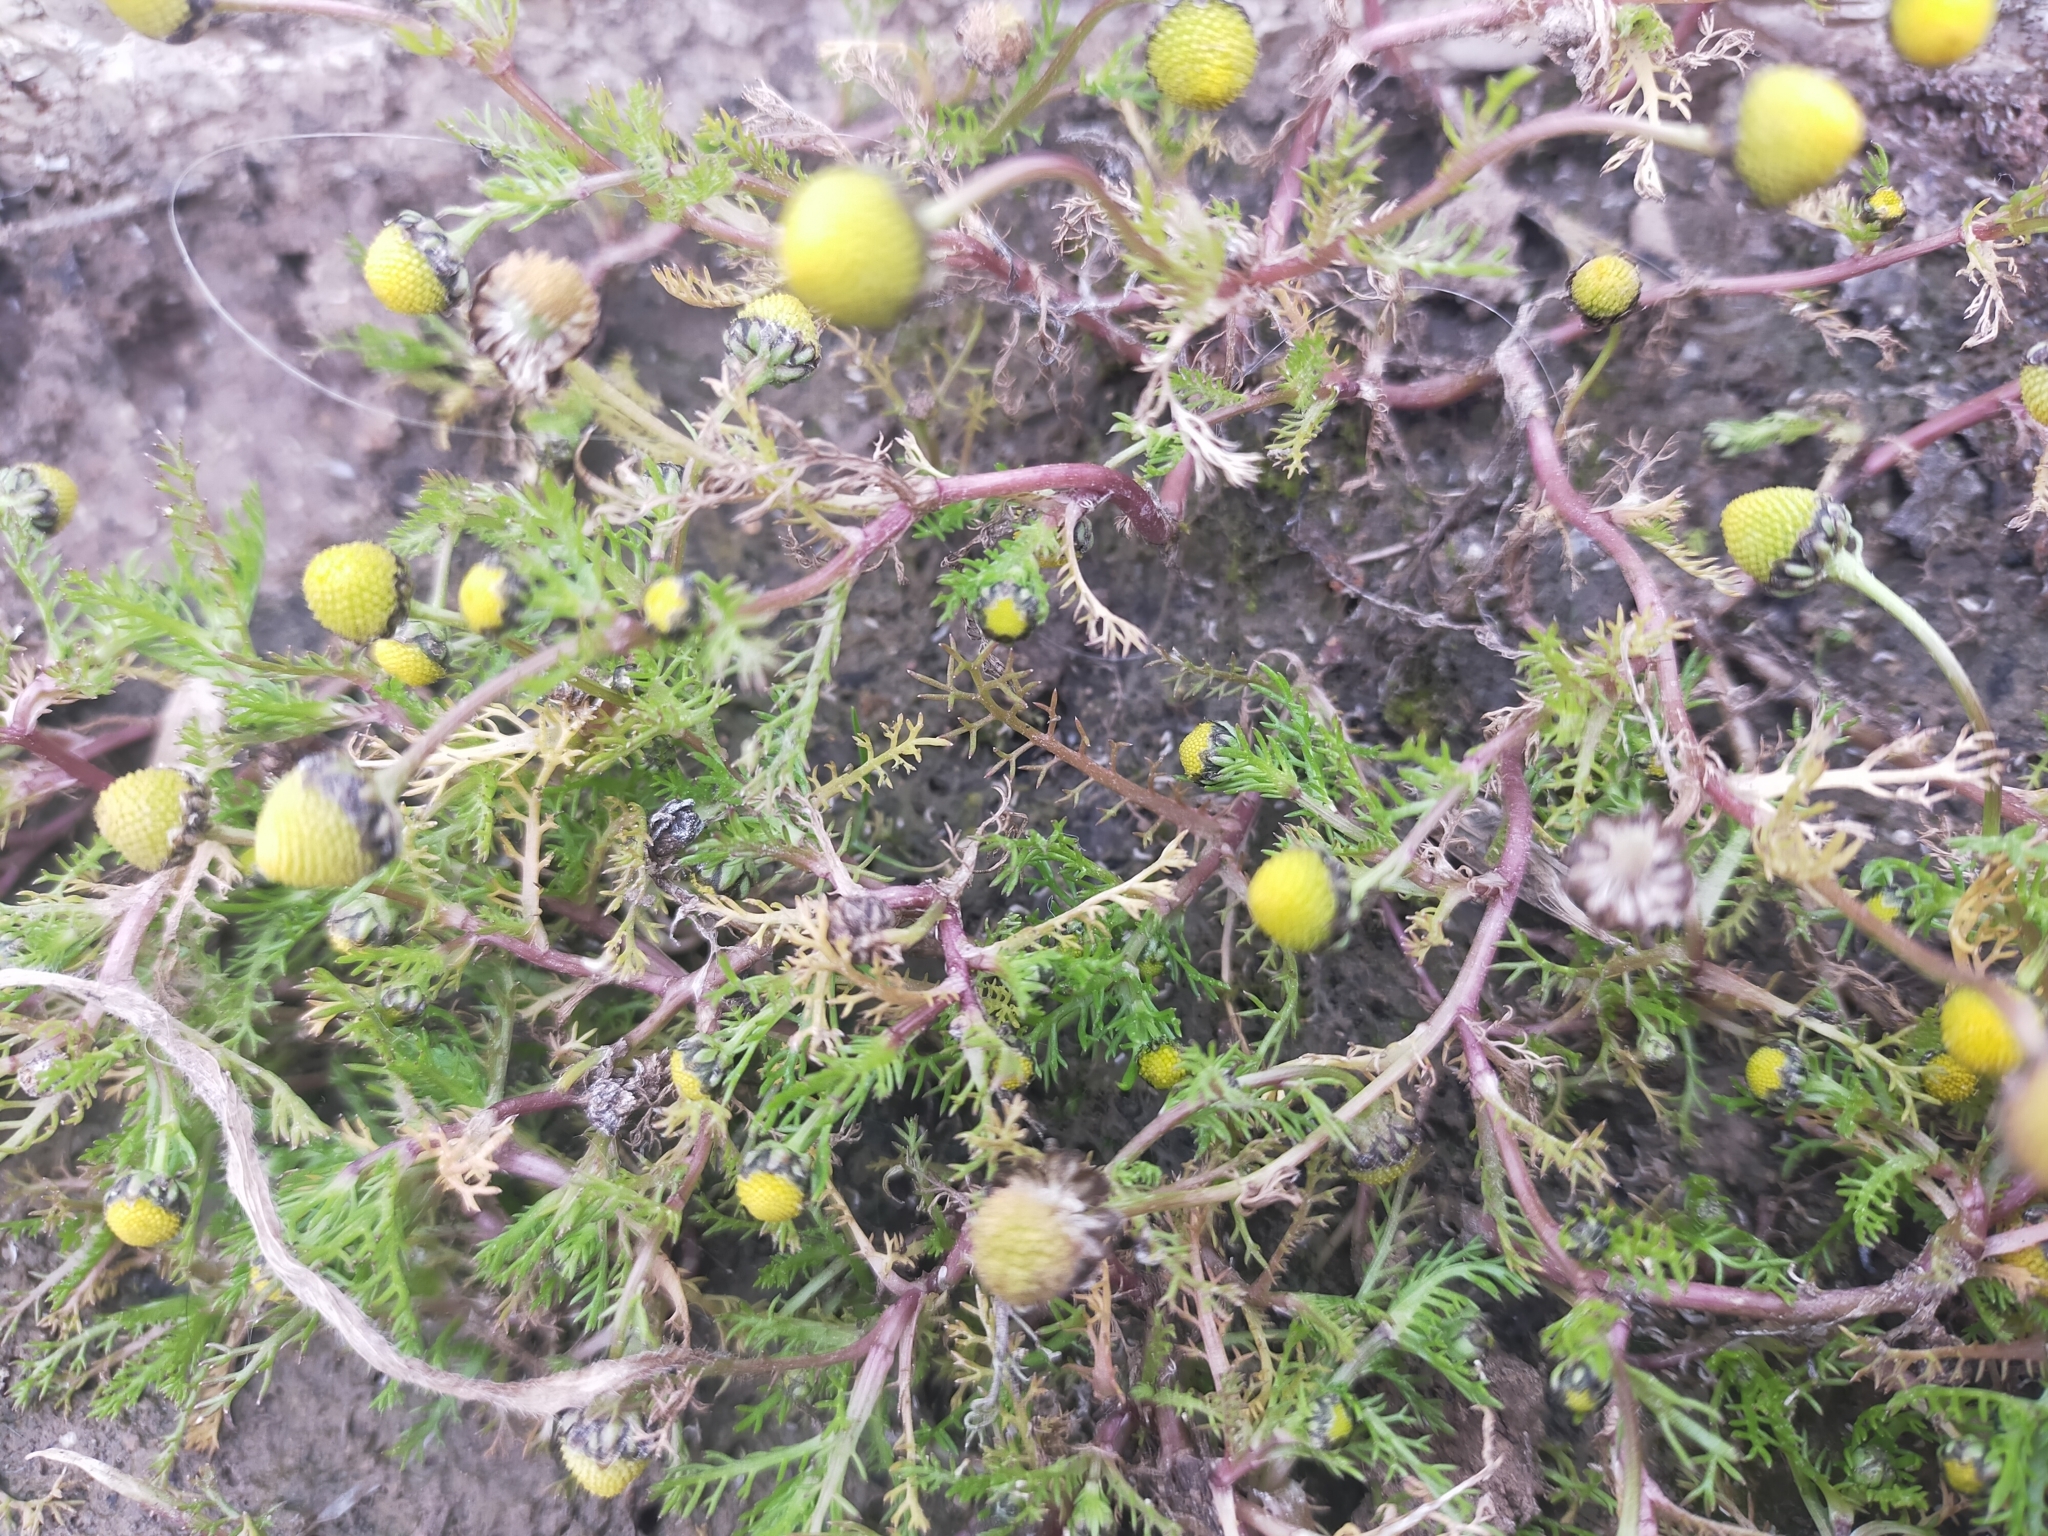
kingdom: Plantae
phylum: Tracheophyta
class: Magnoliopsida
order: Asterales
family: Asteraceae
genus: Matricaria
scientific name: Matricaria aurea
